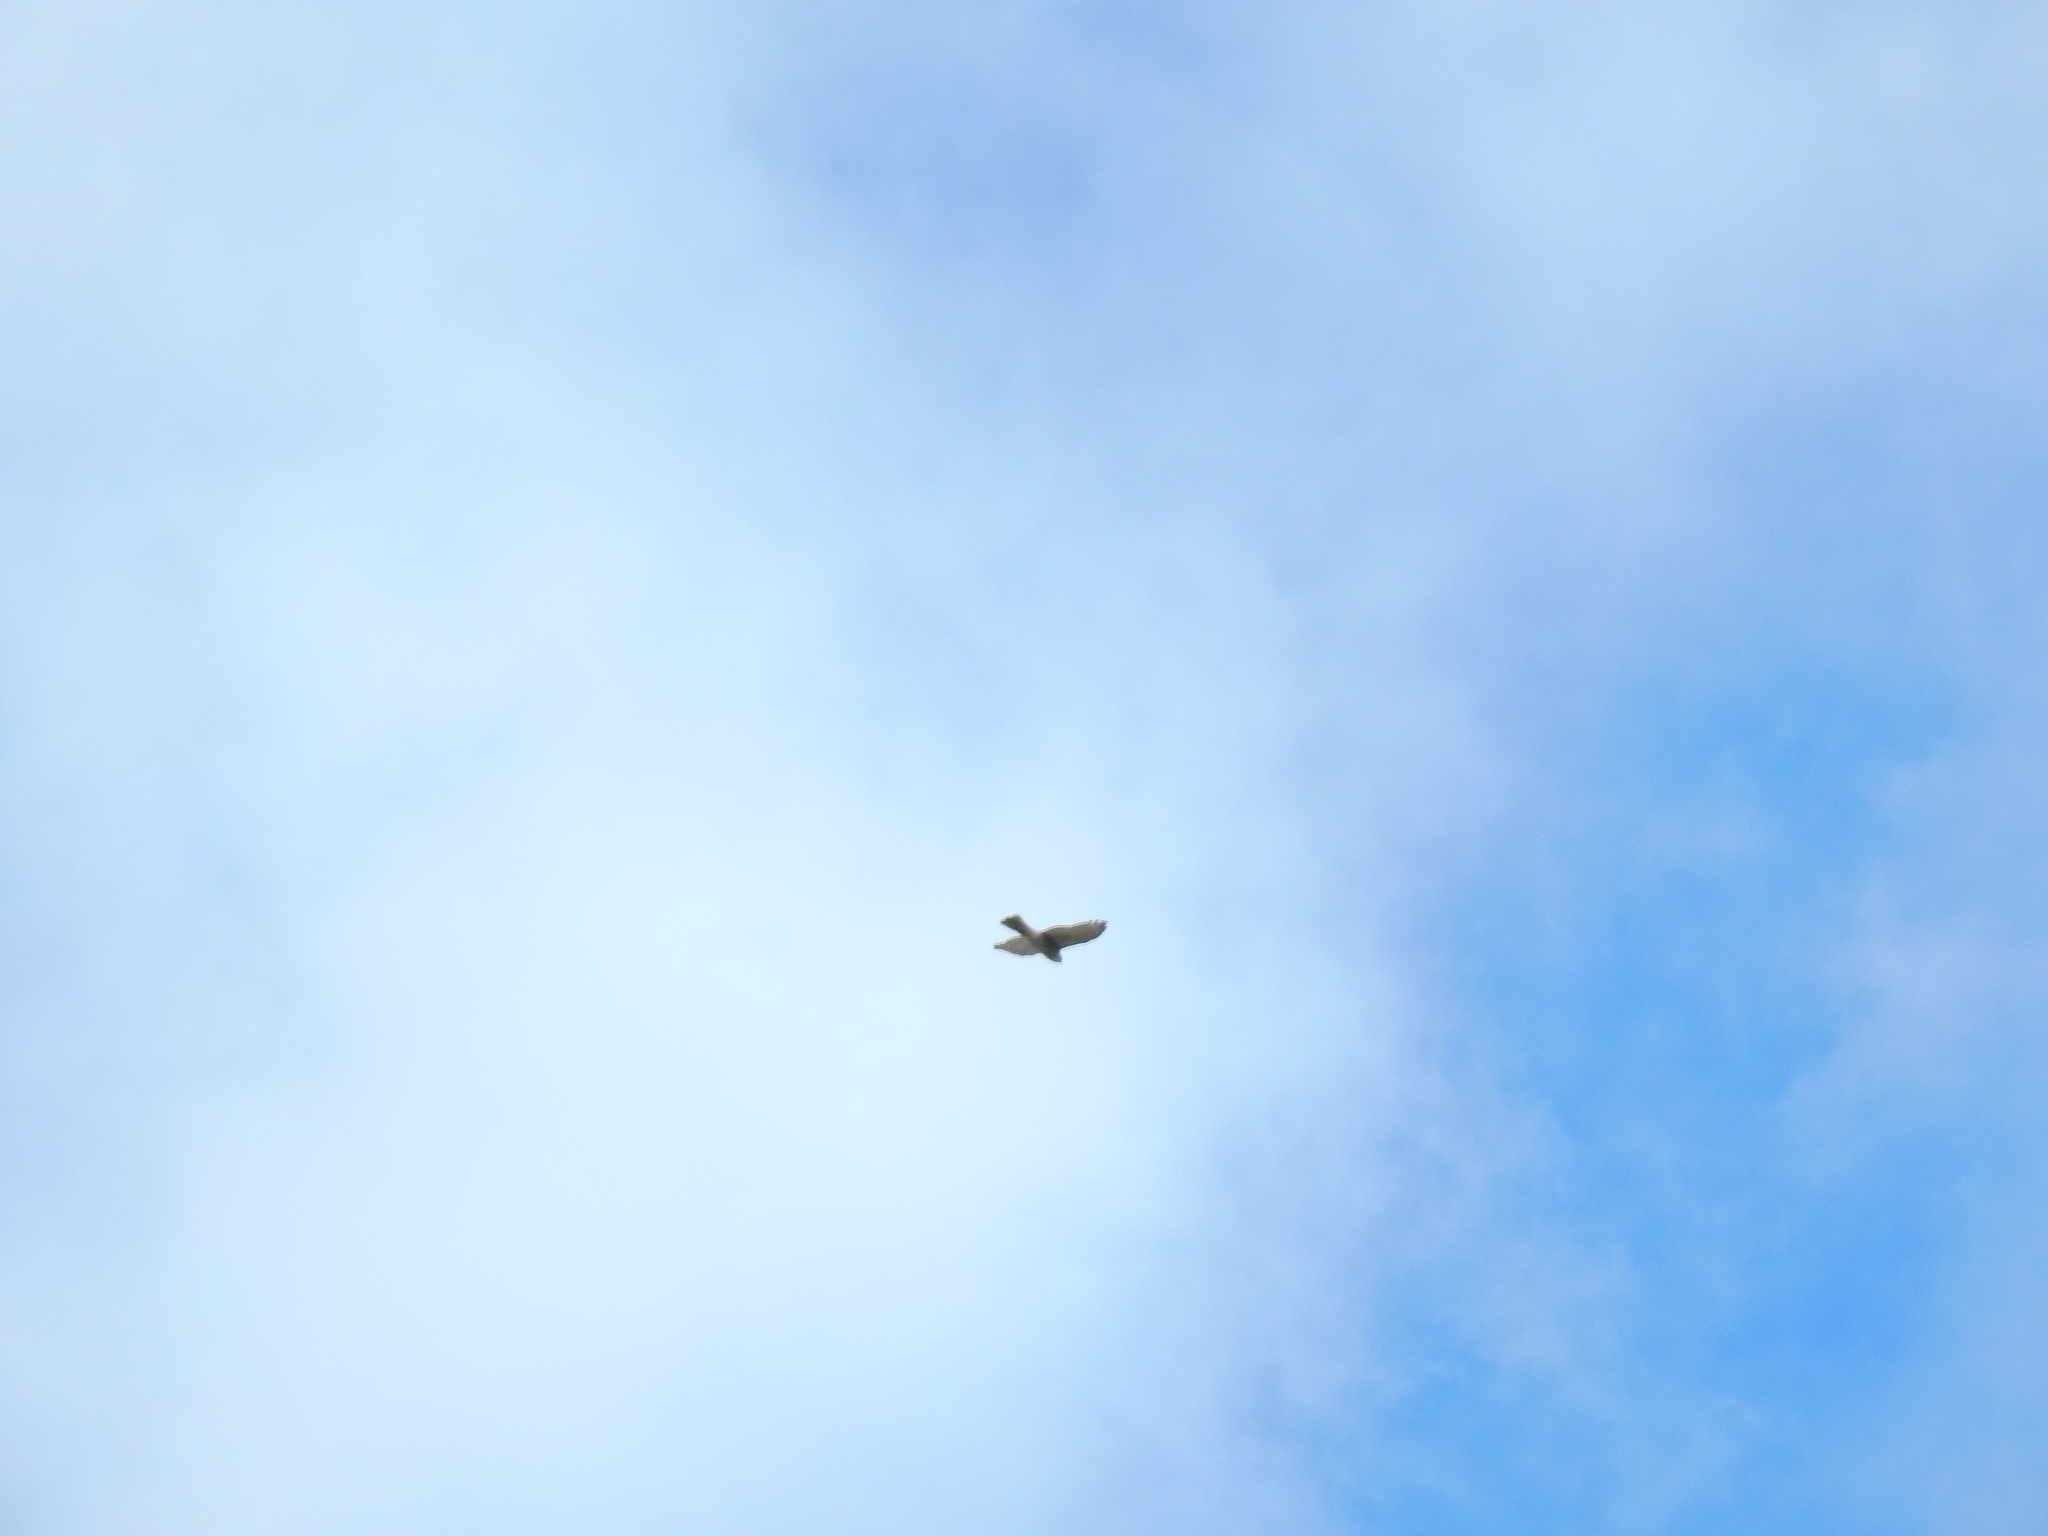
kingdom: Animalia
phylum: Chordata
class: Aves
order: Accipitriformes
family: Accipitridae
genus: Accipiter
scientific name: Accipiter nisus
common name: Eurasian sparrowhawk
